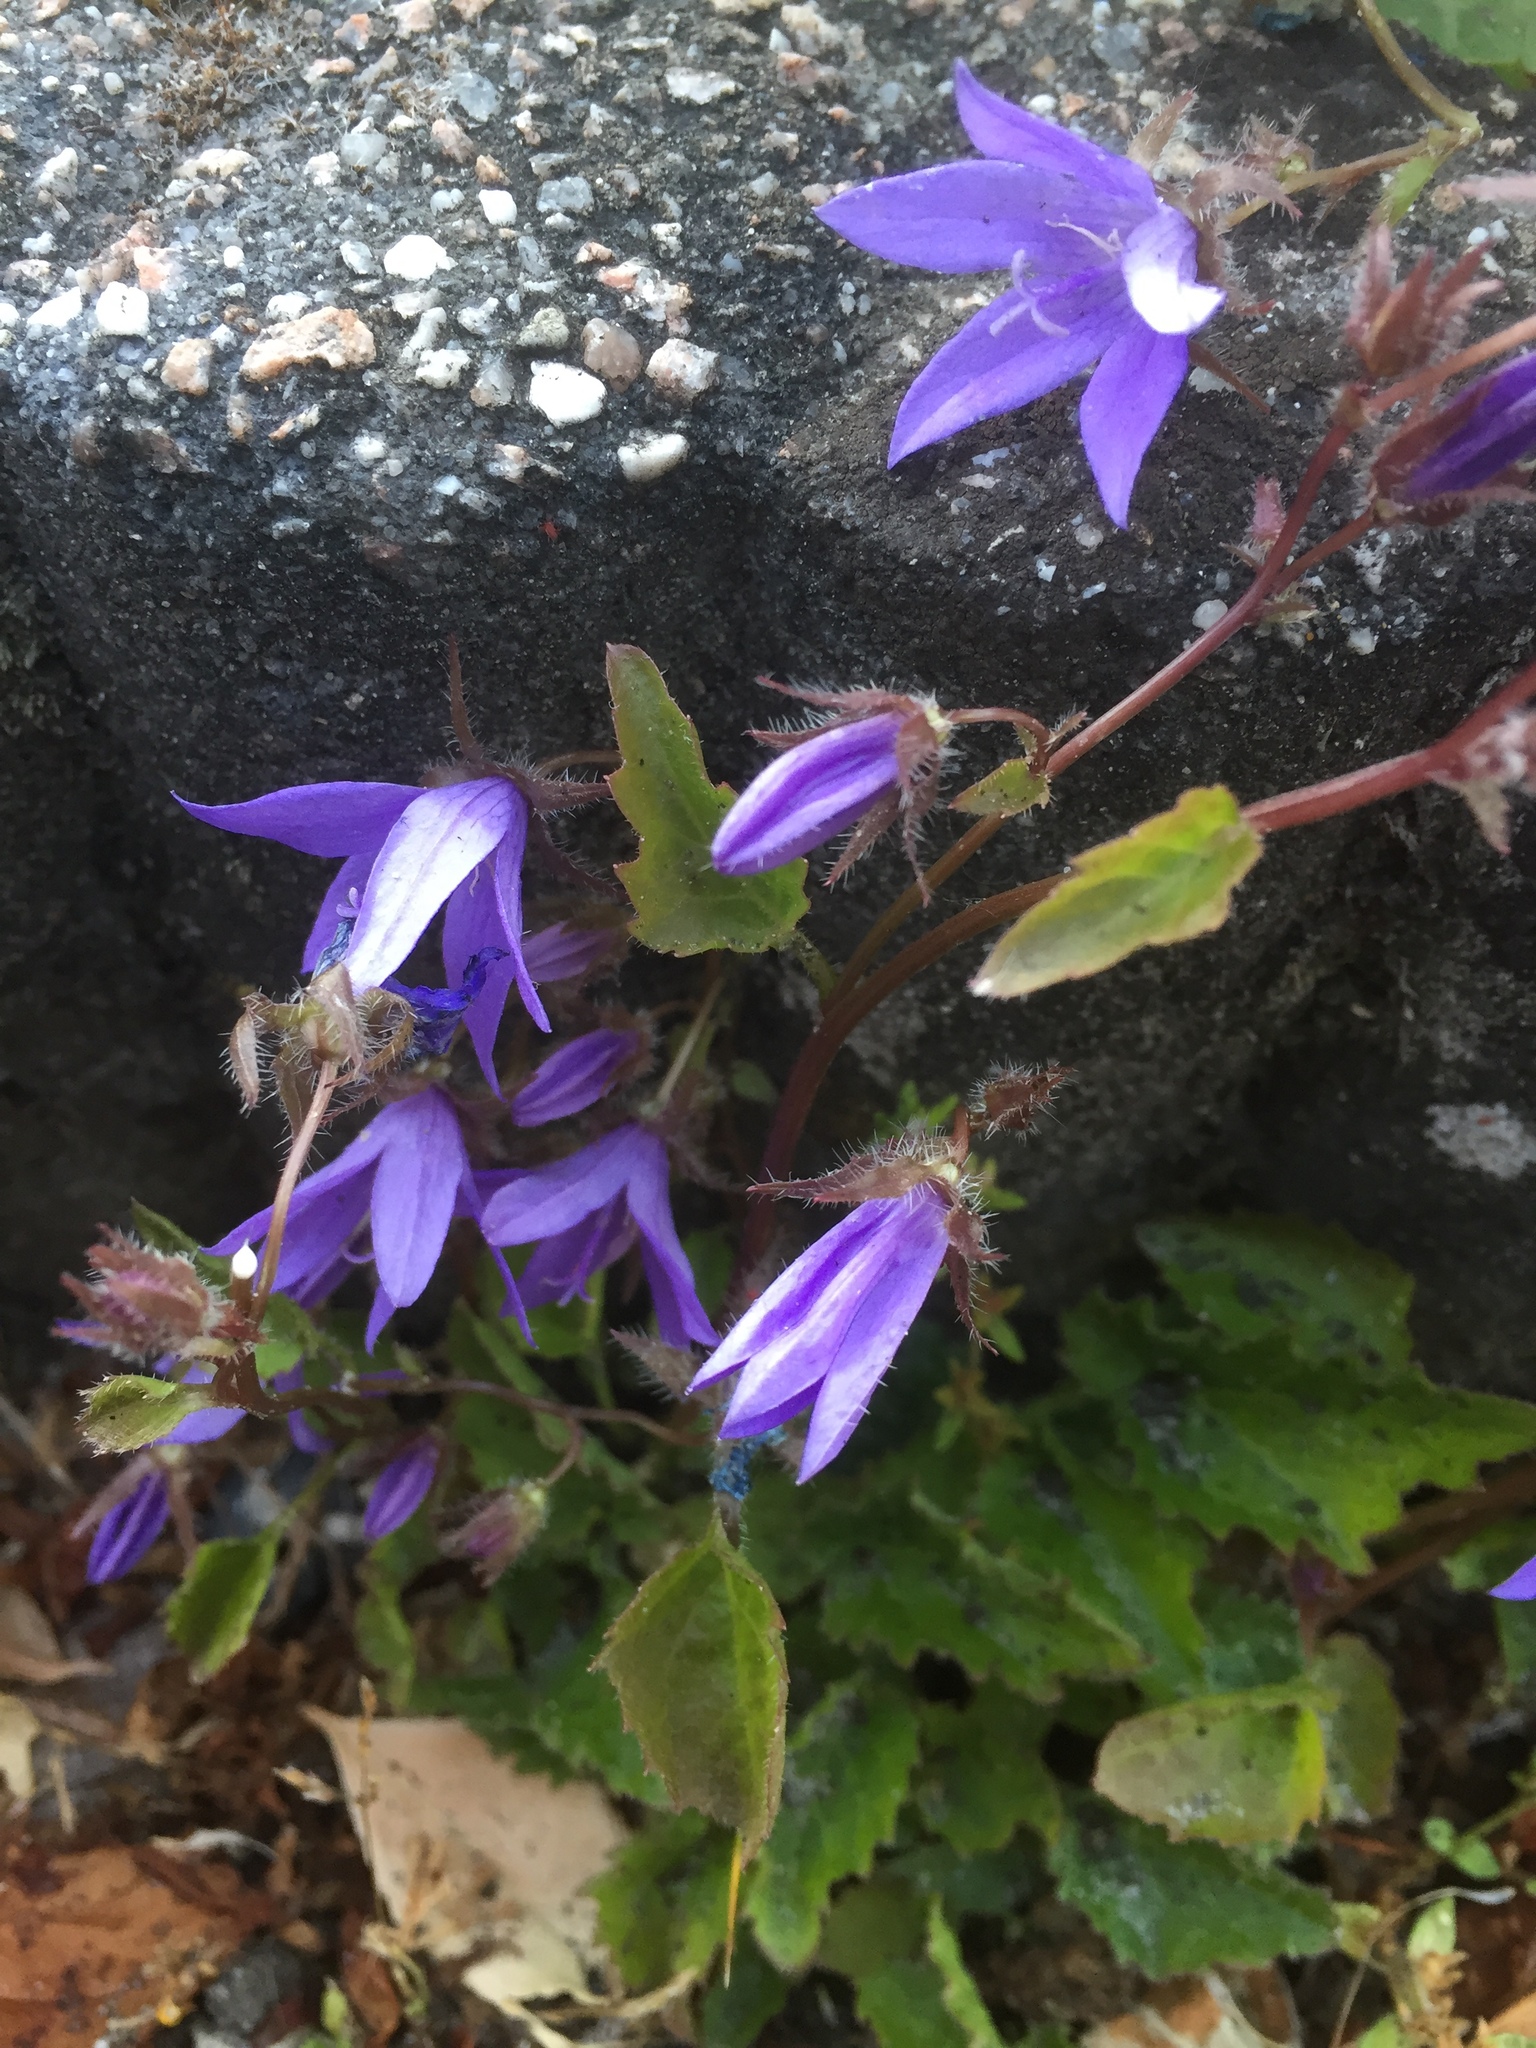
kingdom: Plantae
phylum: Tracheophyta
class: Magnoliopsida
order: Asterales
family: Campanulaceae
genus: Campanula
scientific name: Campanula poscharskyana
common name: Trailing bellflower
